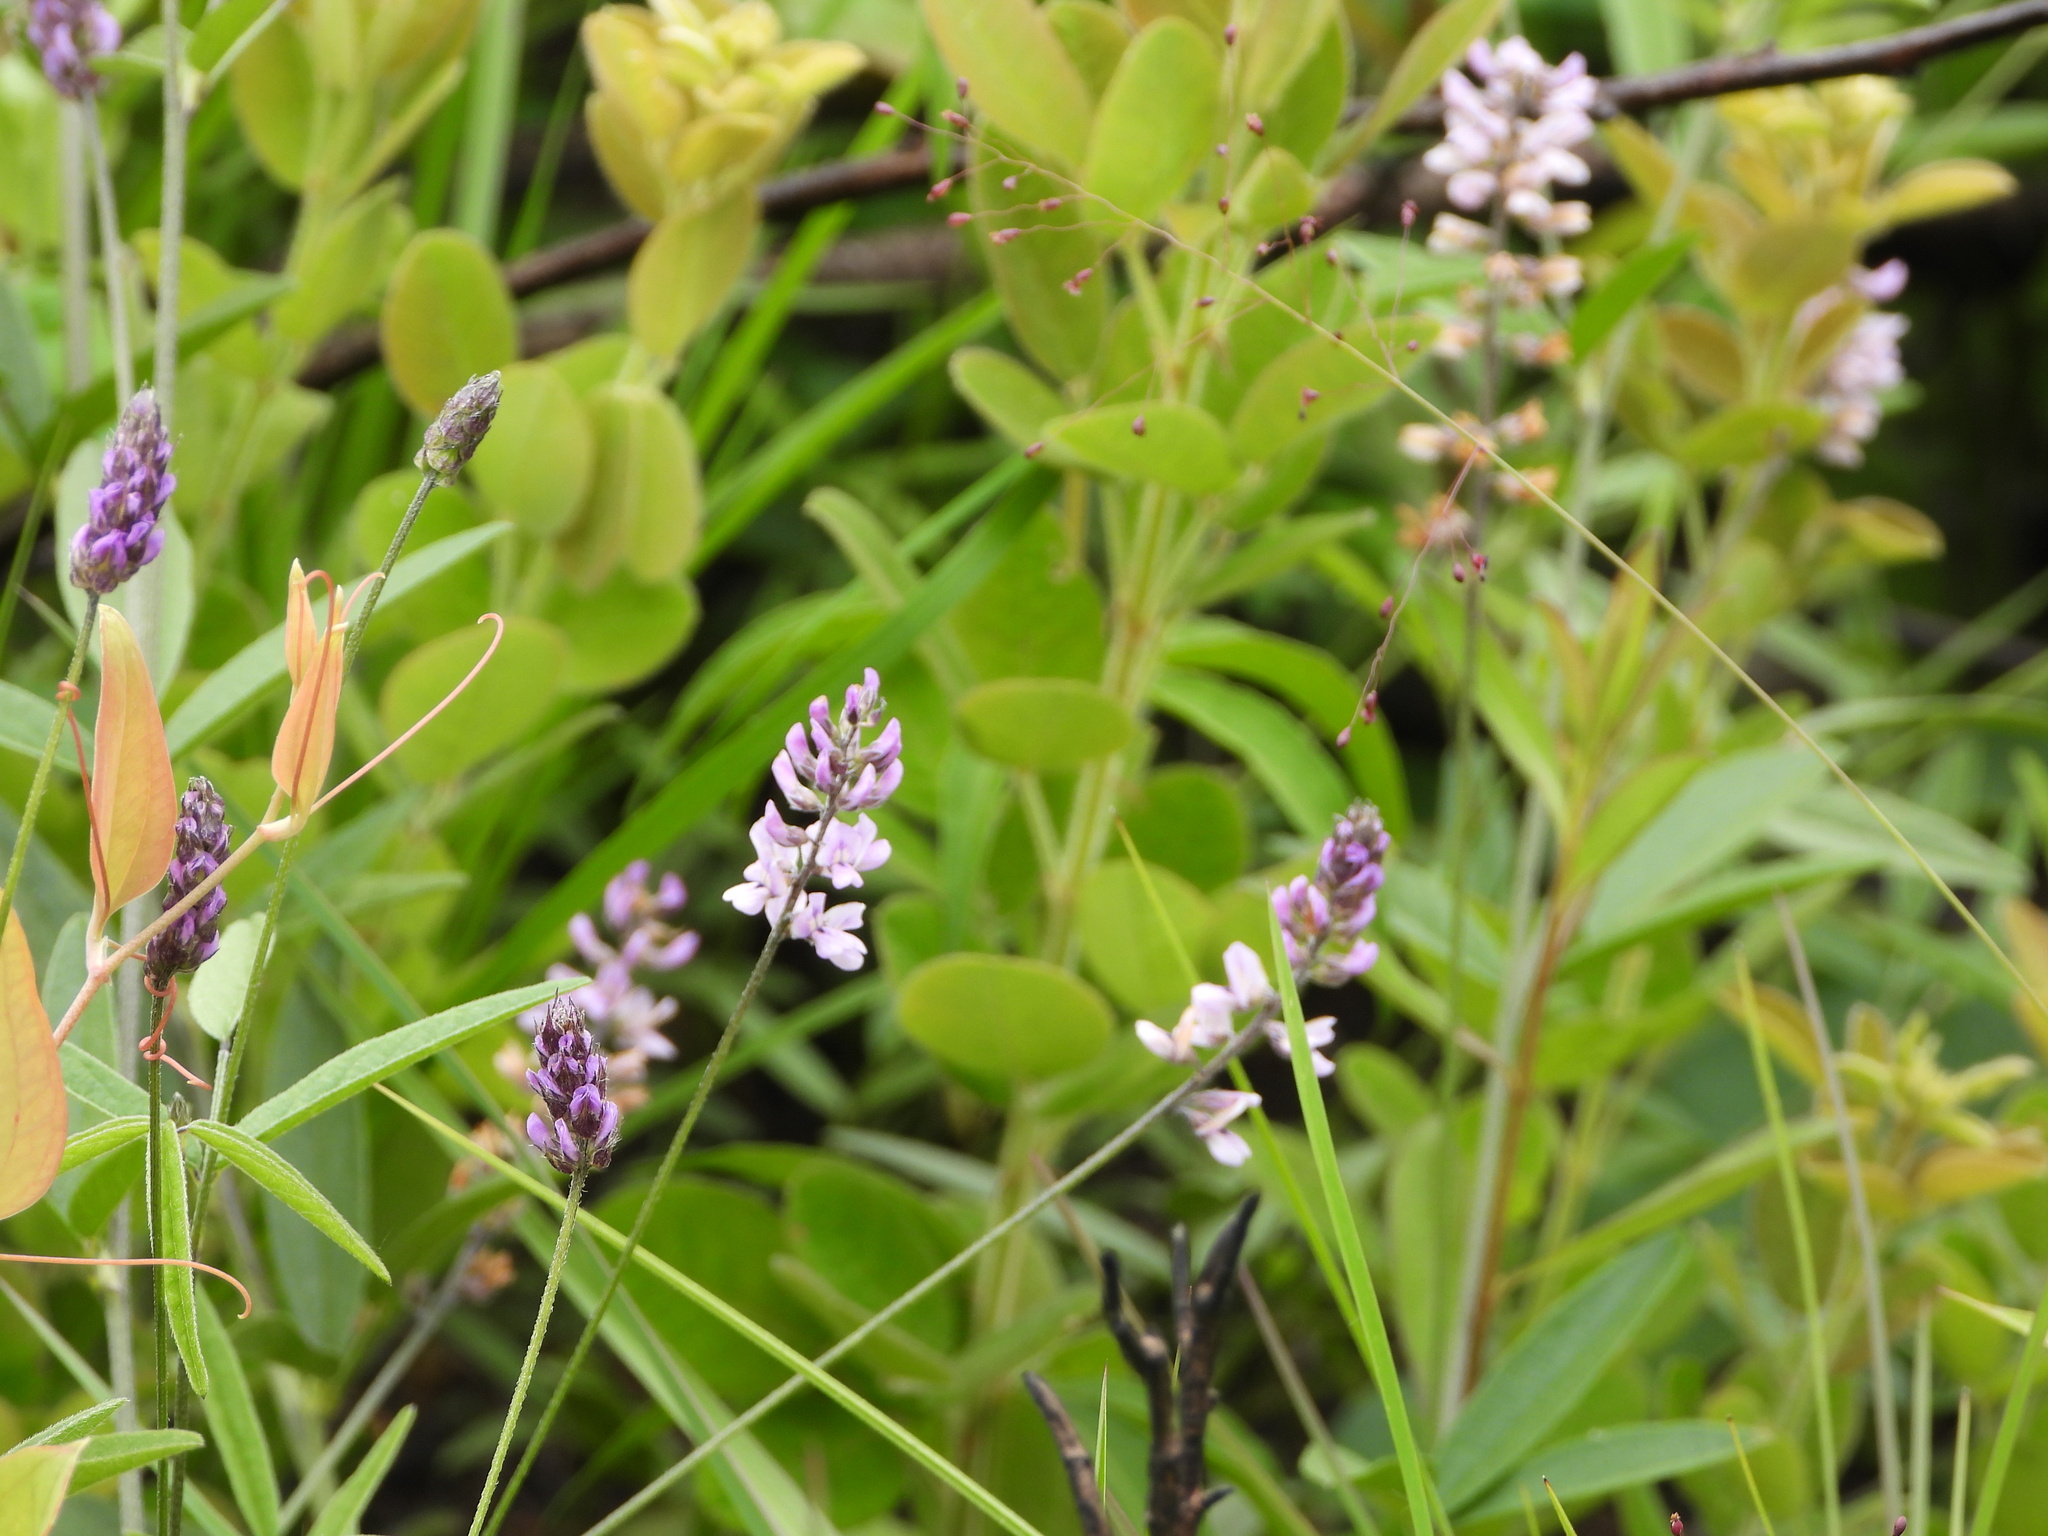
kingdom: Animalia
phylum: Arthropoda
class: Insecta
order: Hymenoptera
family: Apidae
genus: Bombus
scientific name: Bombus
